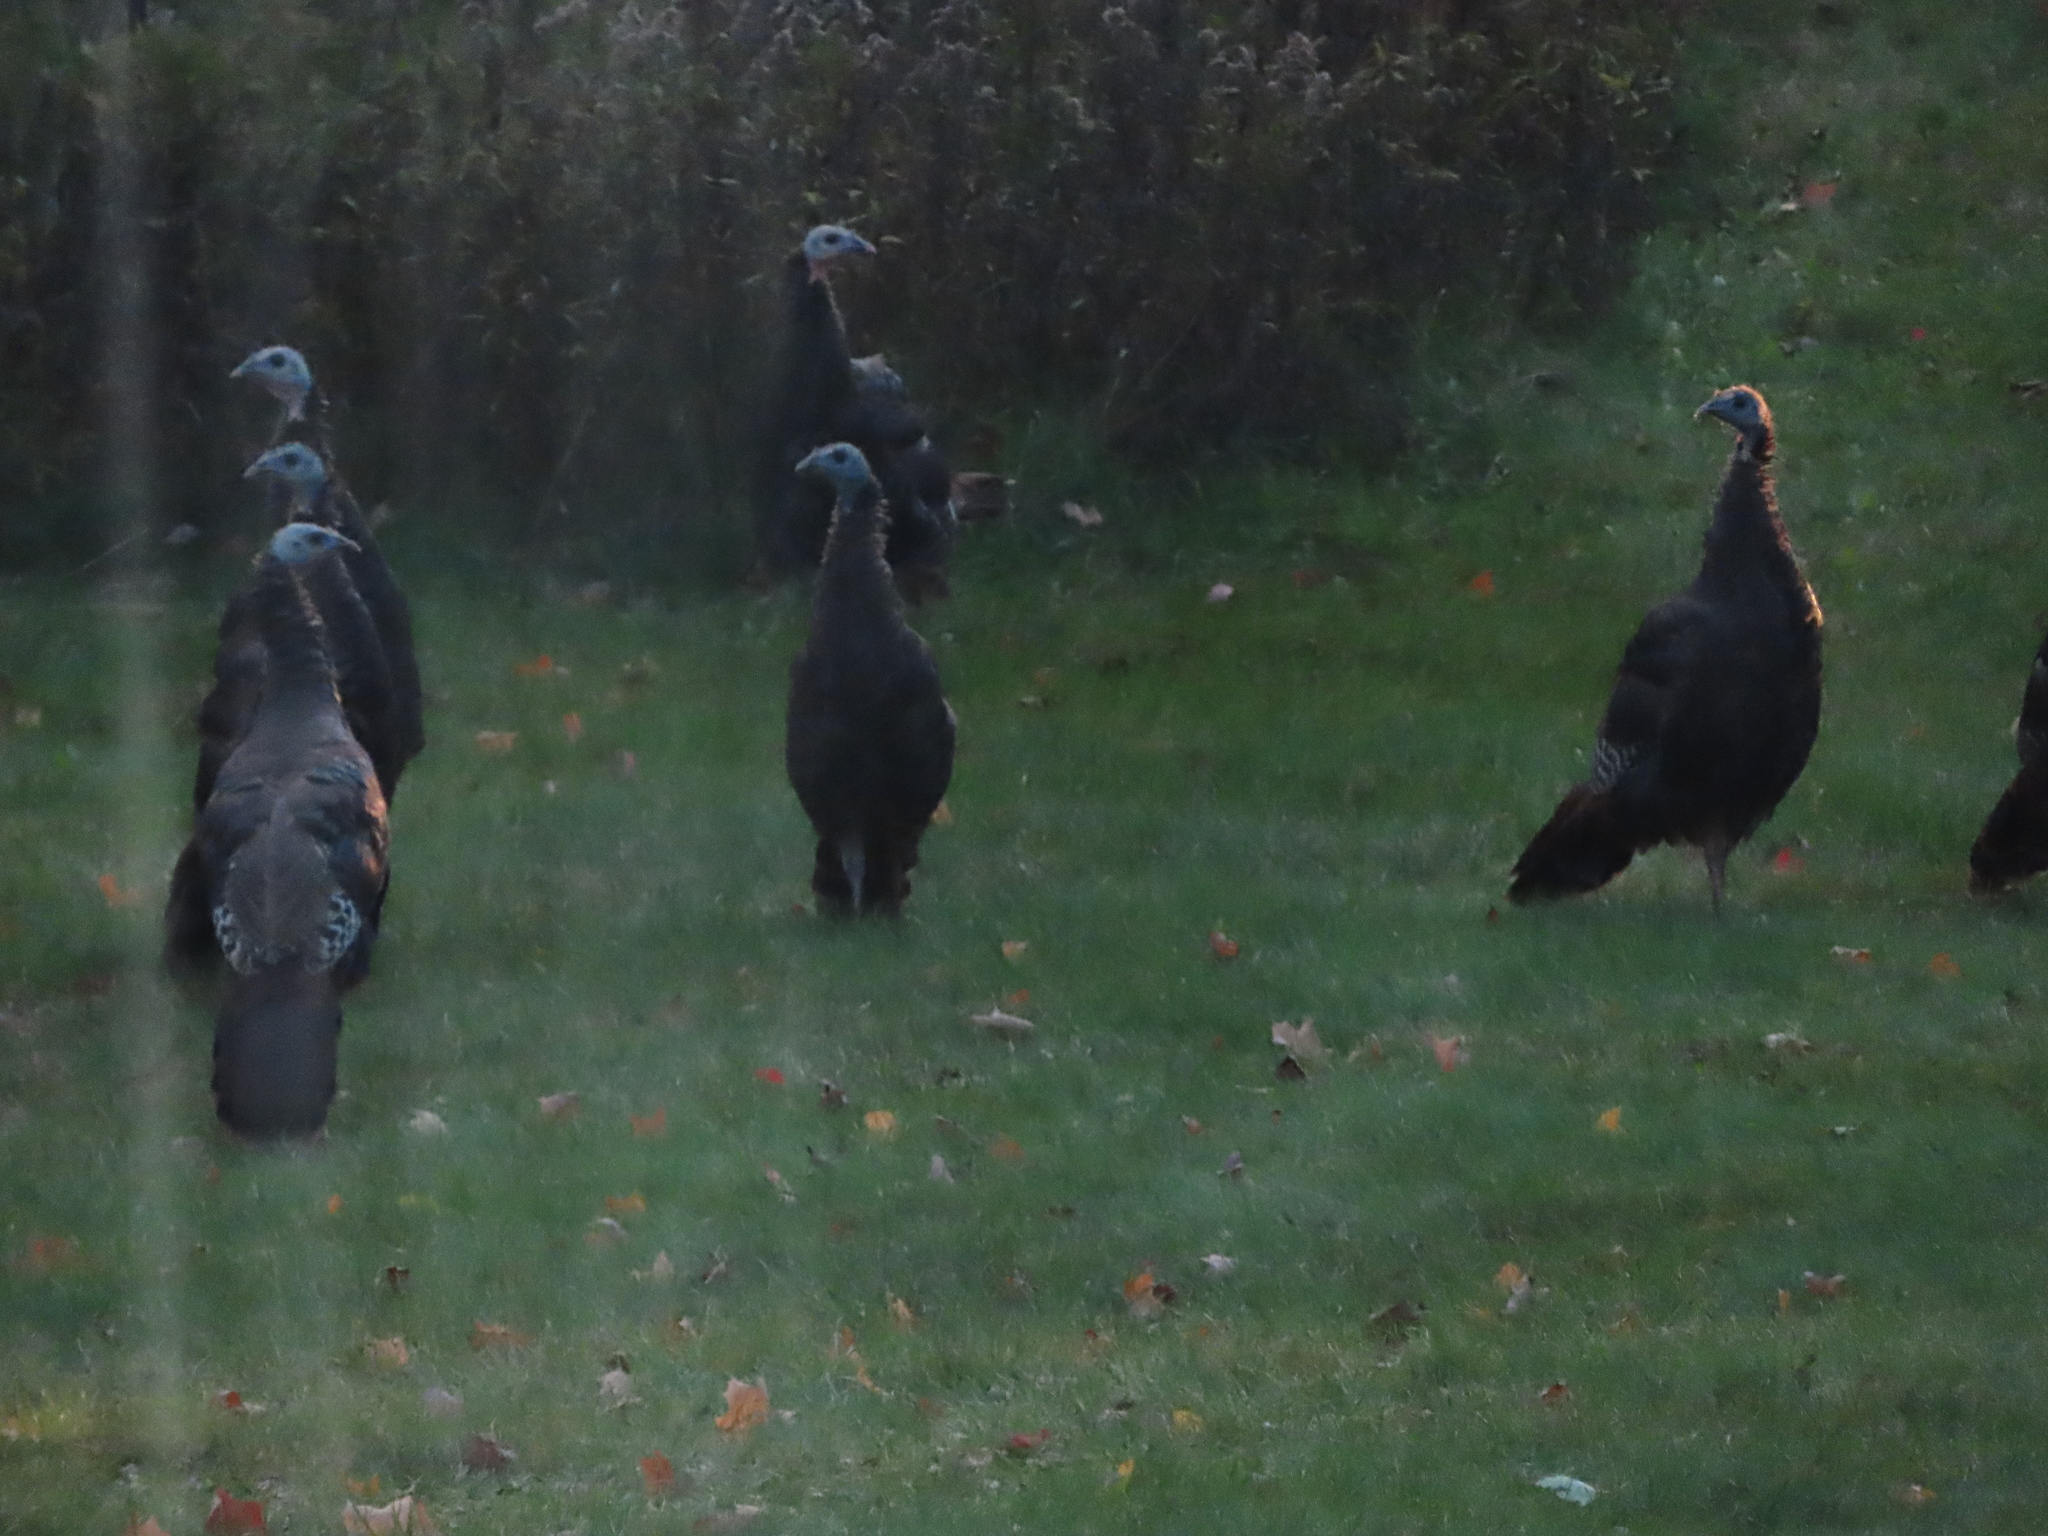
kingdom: Animalia
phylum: Chordata
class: Aves
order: Galliformes
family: Phasianidae
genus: Meleagris
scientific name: Meleagris gallopavo
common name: Wild turkey
